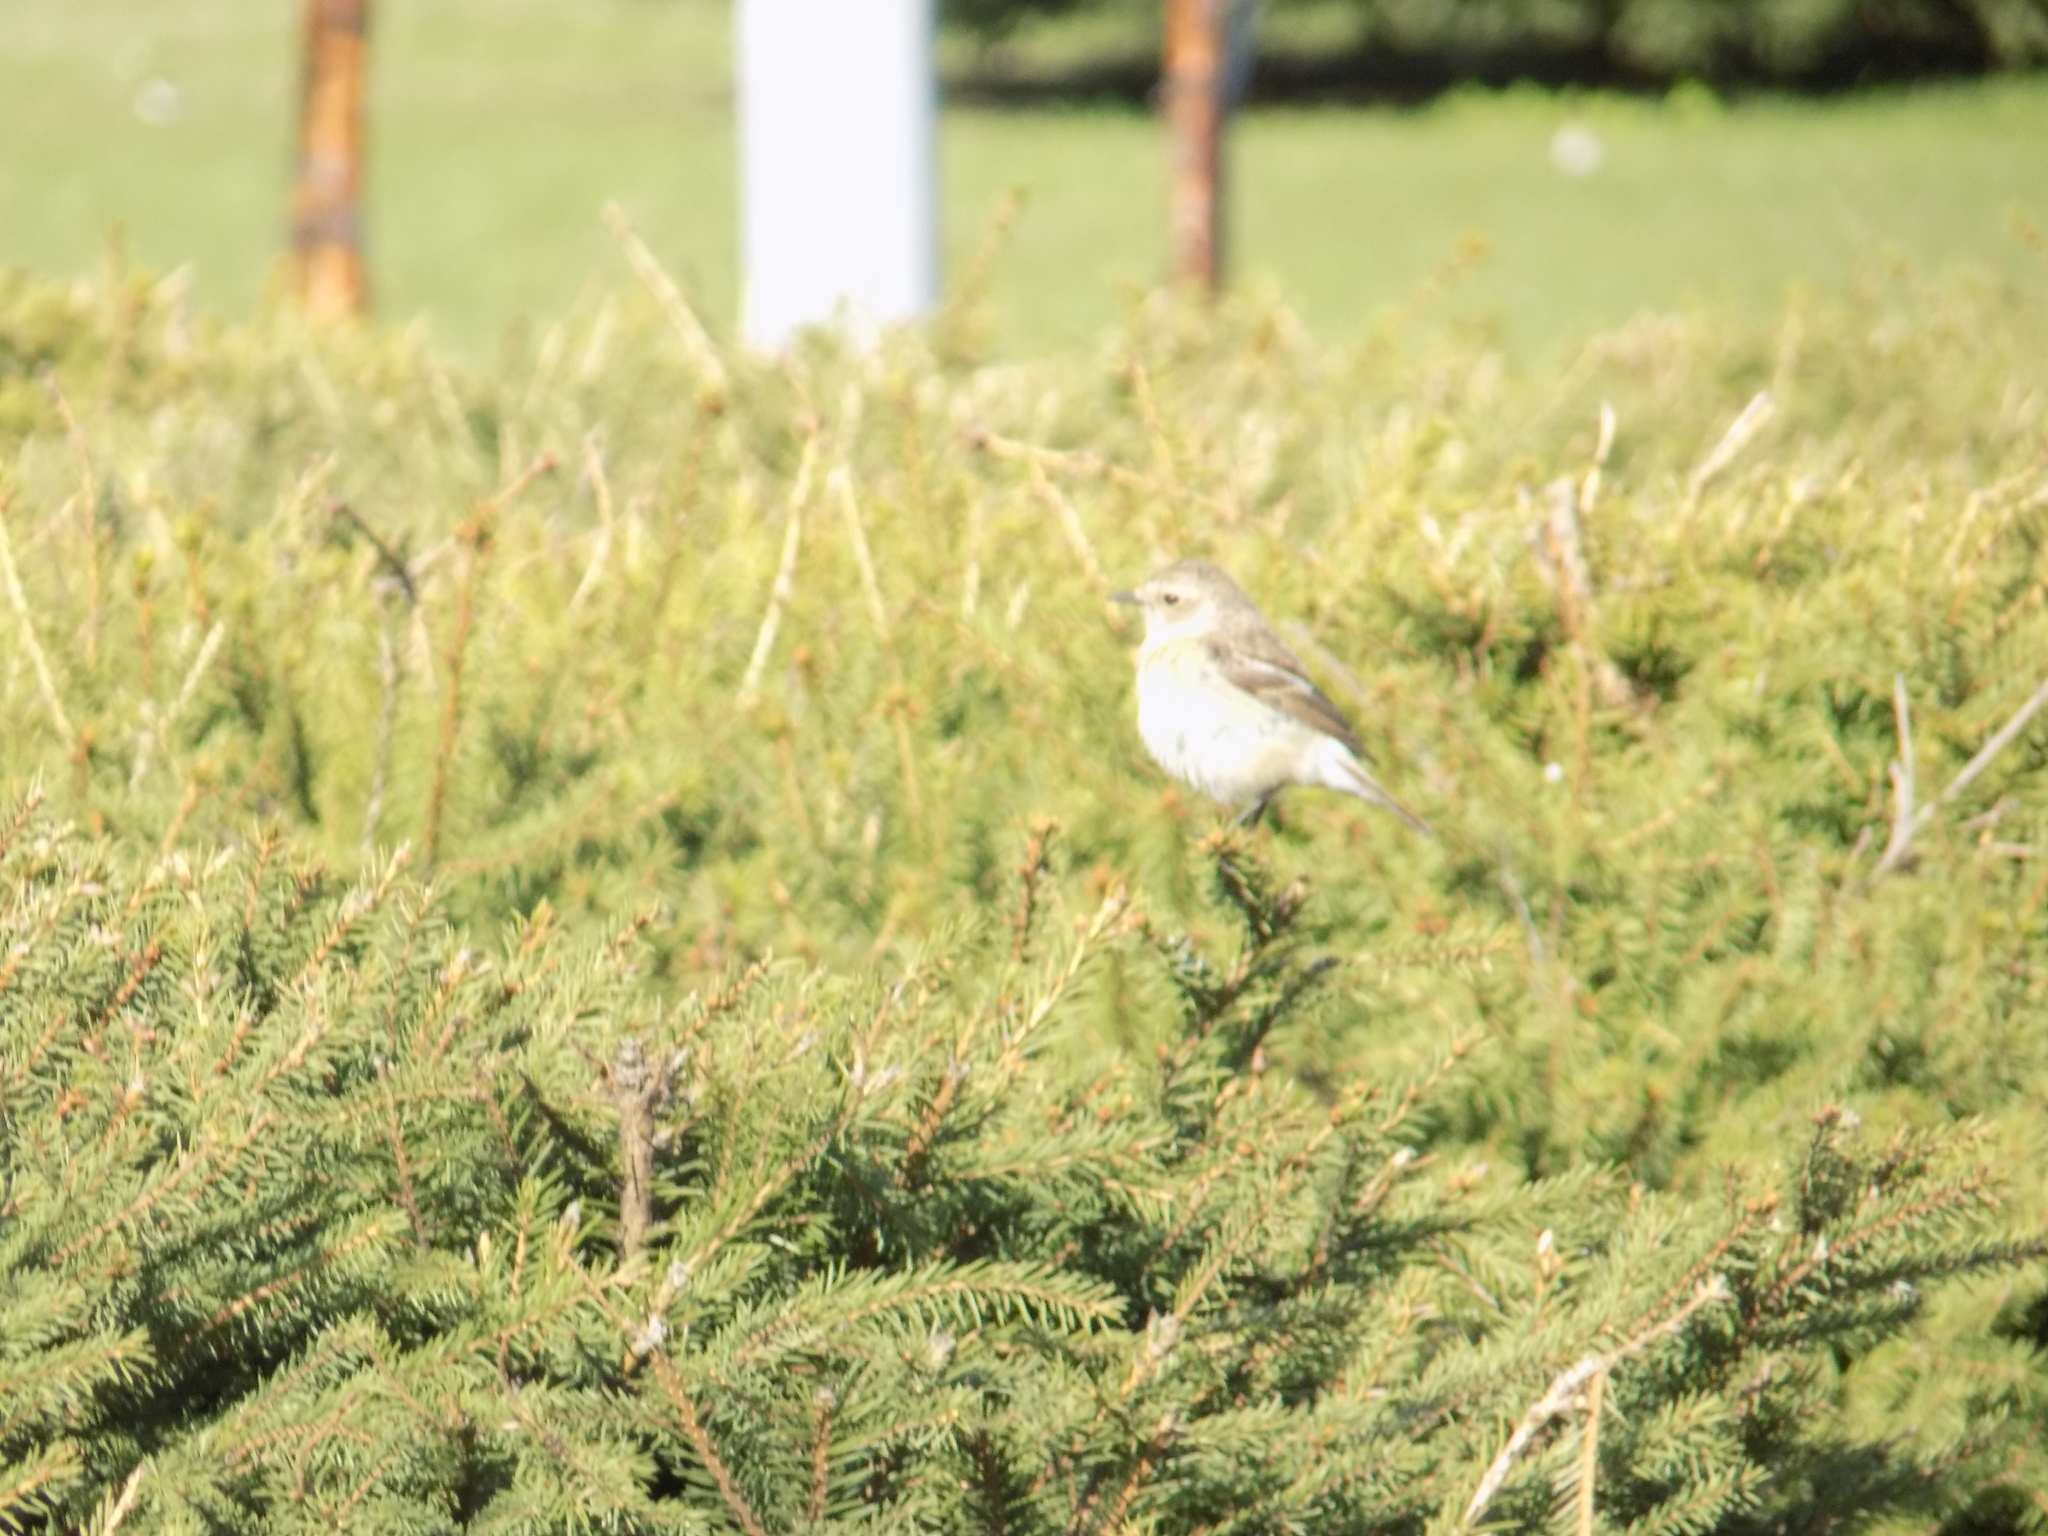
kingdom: Animalia
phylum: Chordata
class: Aves
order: Passeriformes
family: Muscicapidae
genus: Saxicola
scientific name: Saxicola maurus
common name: Siberian stonechat
